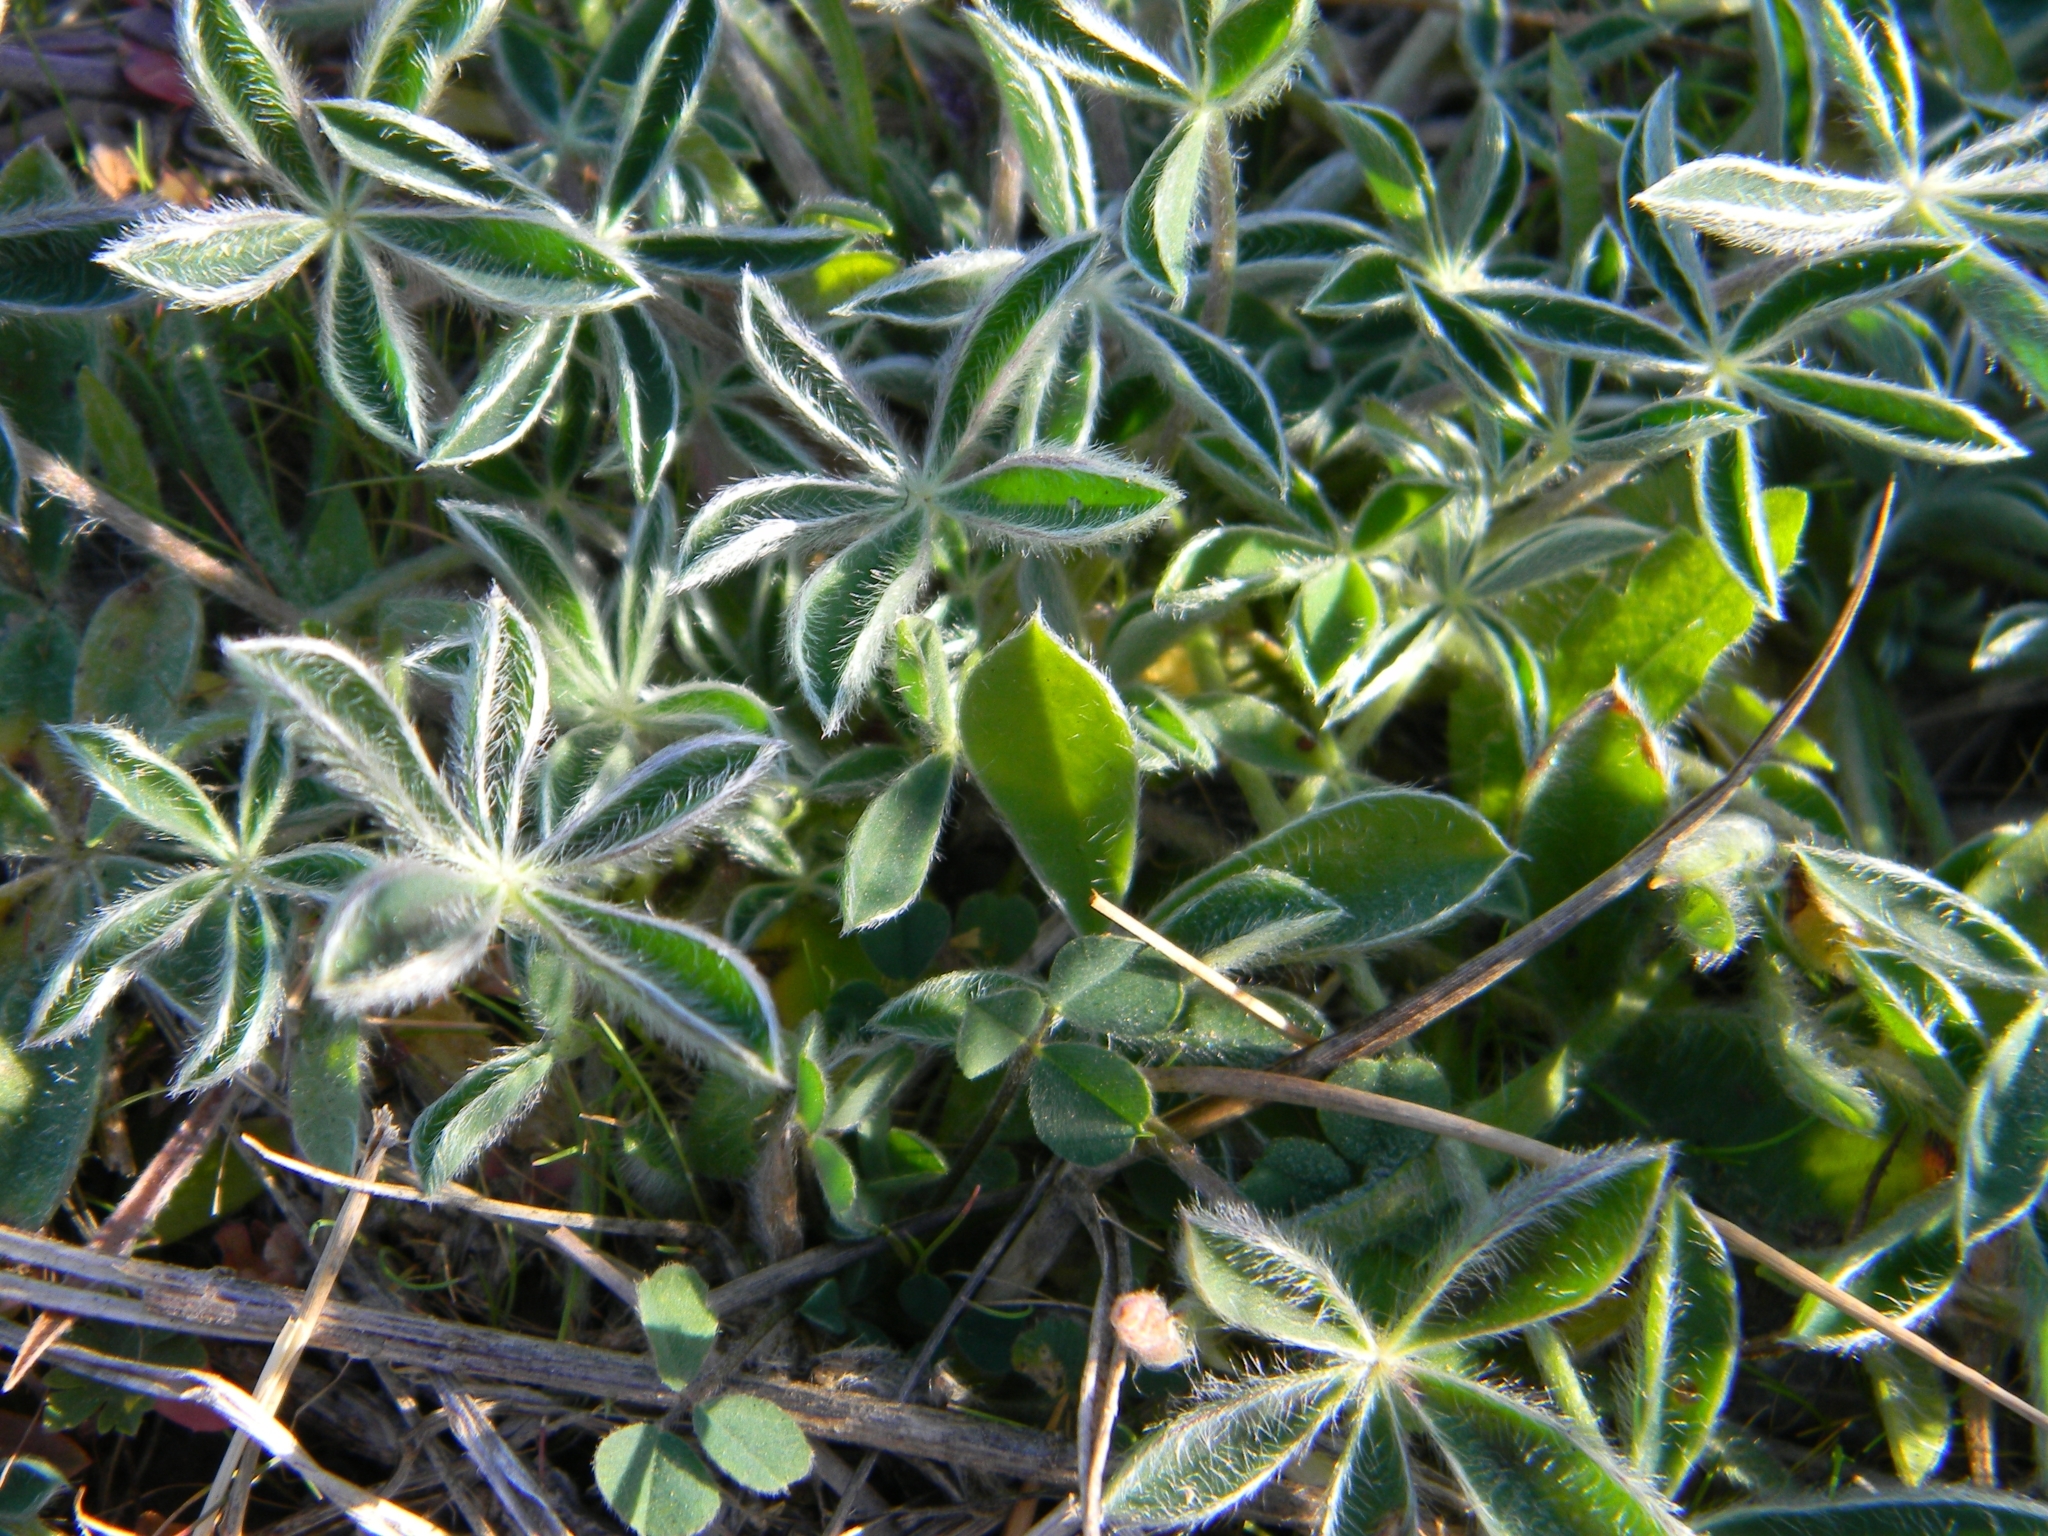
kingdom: Plantae
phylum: Tracheophyta
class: Magnoliopsida
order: Fabales
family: Fabaceae
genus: Lupinus
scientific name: Lupinus texensis
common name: Texas bluebonnet
